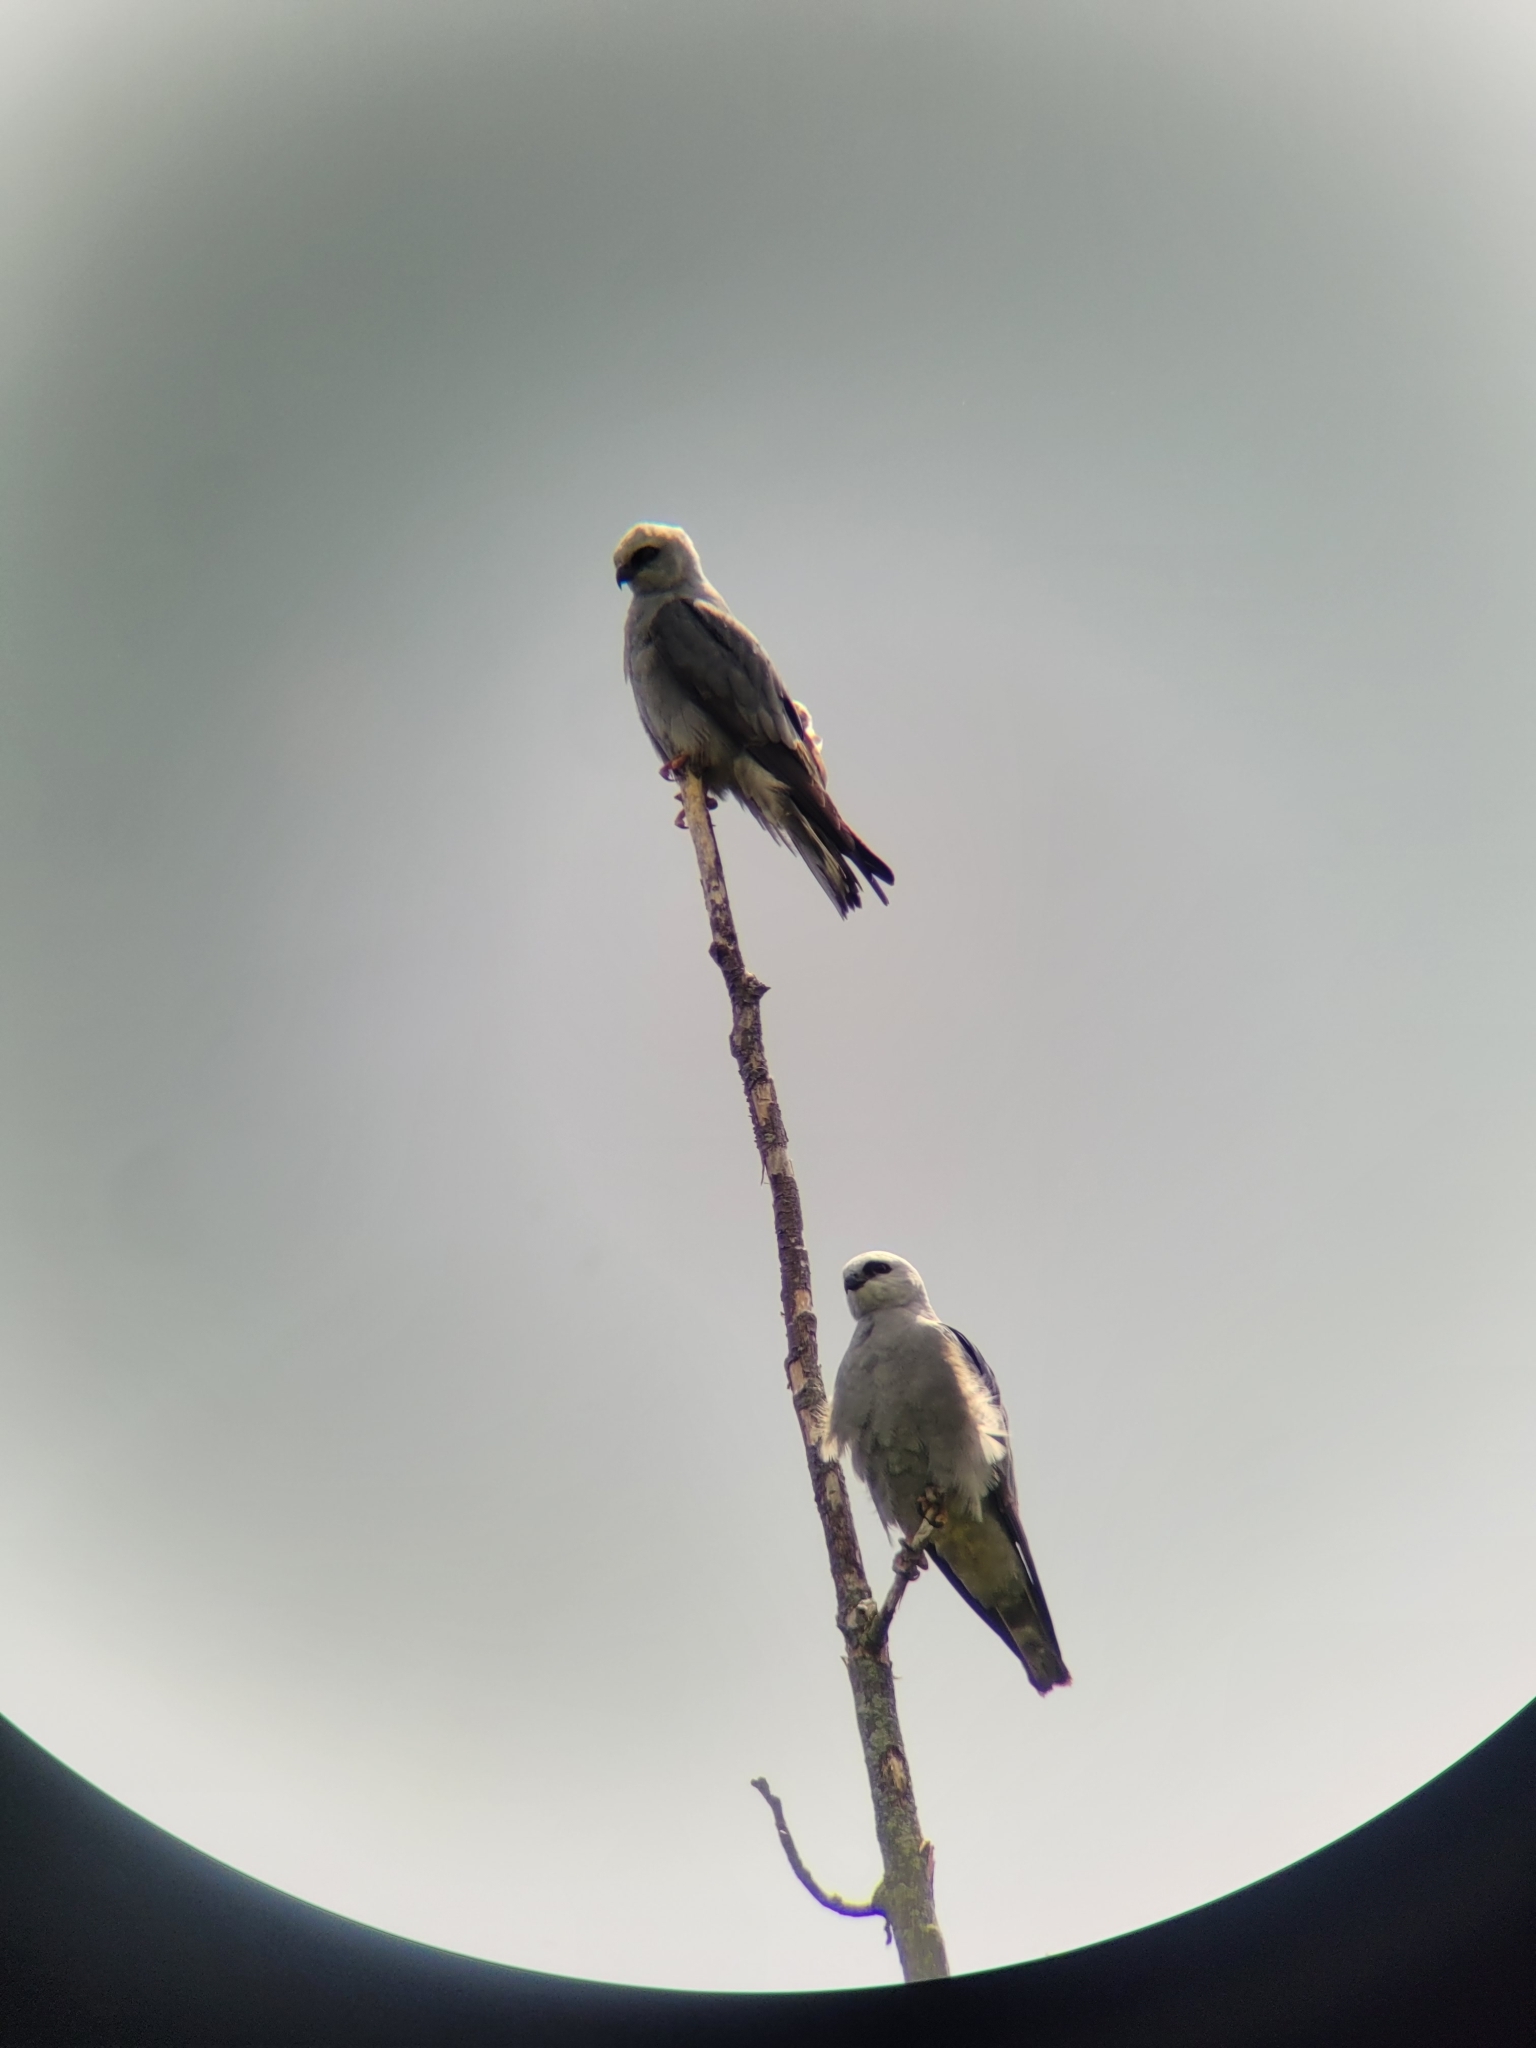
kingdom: Animalia
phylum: Chordata
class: Aves
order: Accipitriformes
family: Accipitridae
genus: Ictinia
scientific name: Ictinia mississippiensis
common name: Mississippi kite
